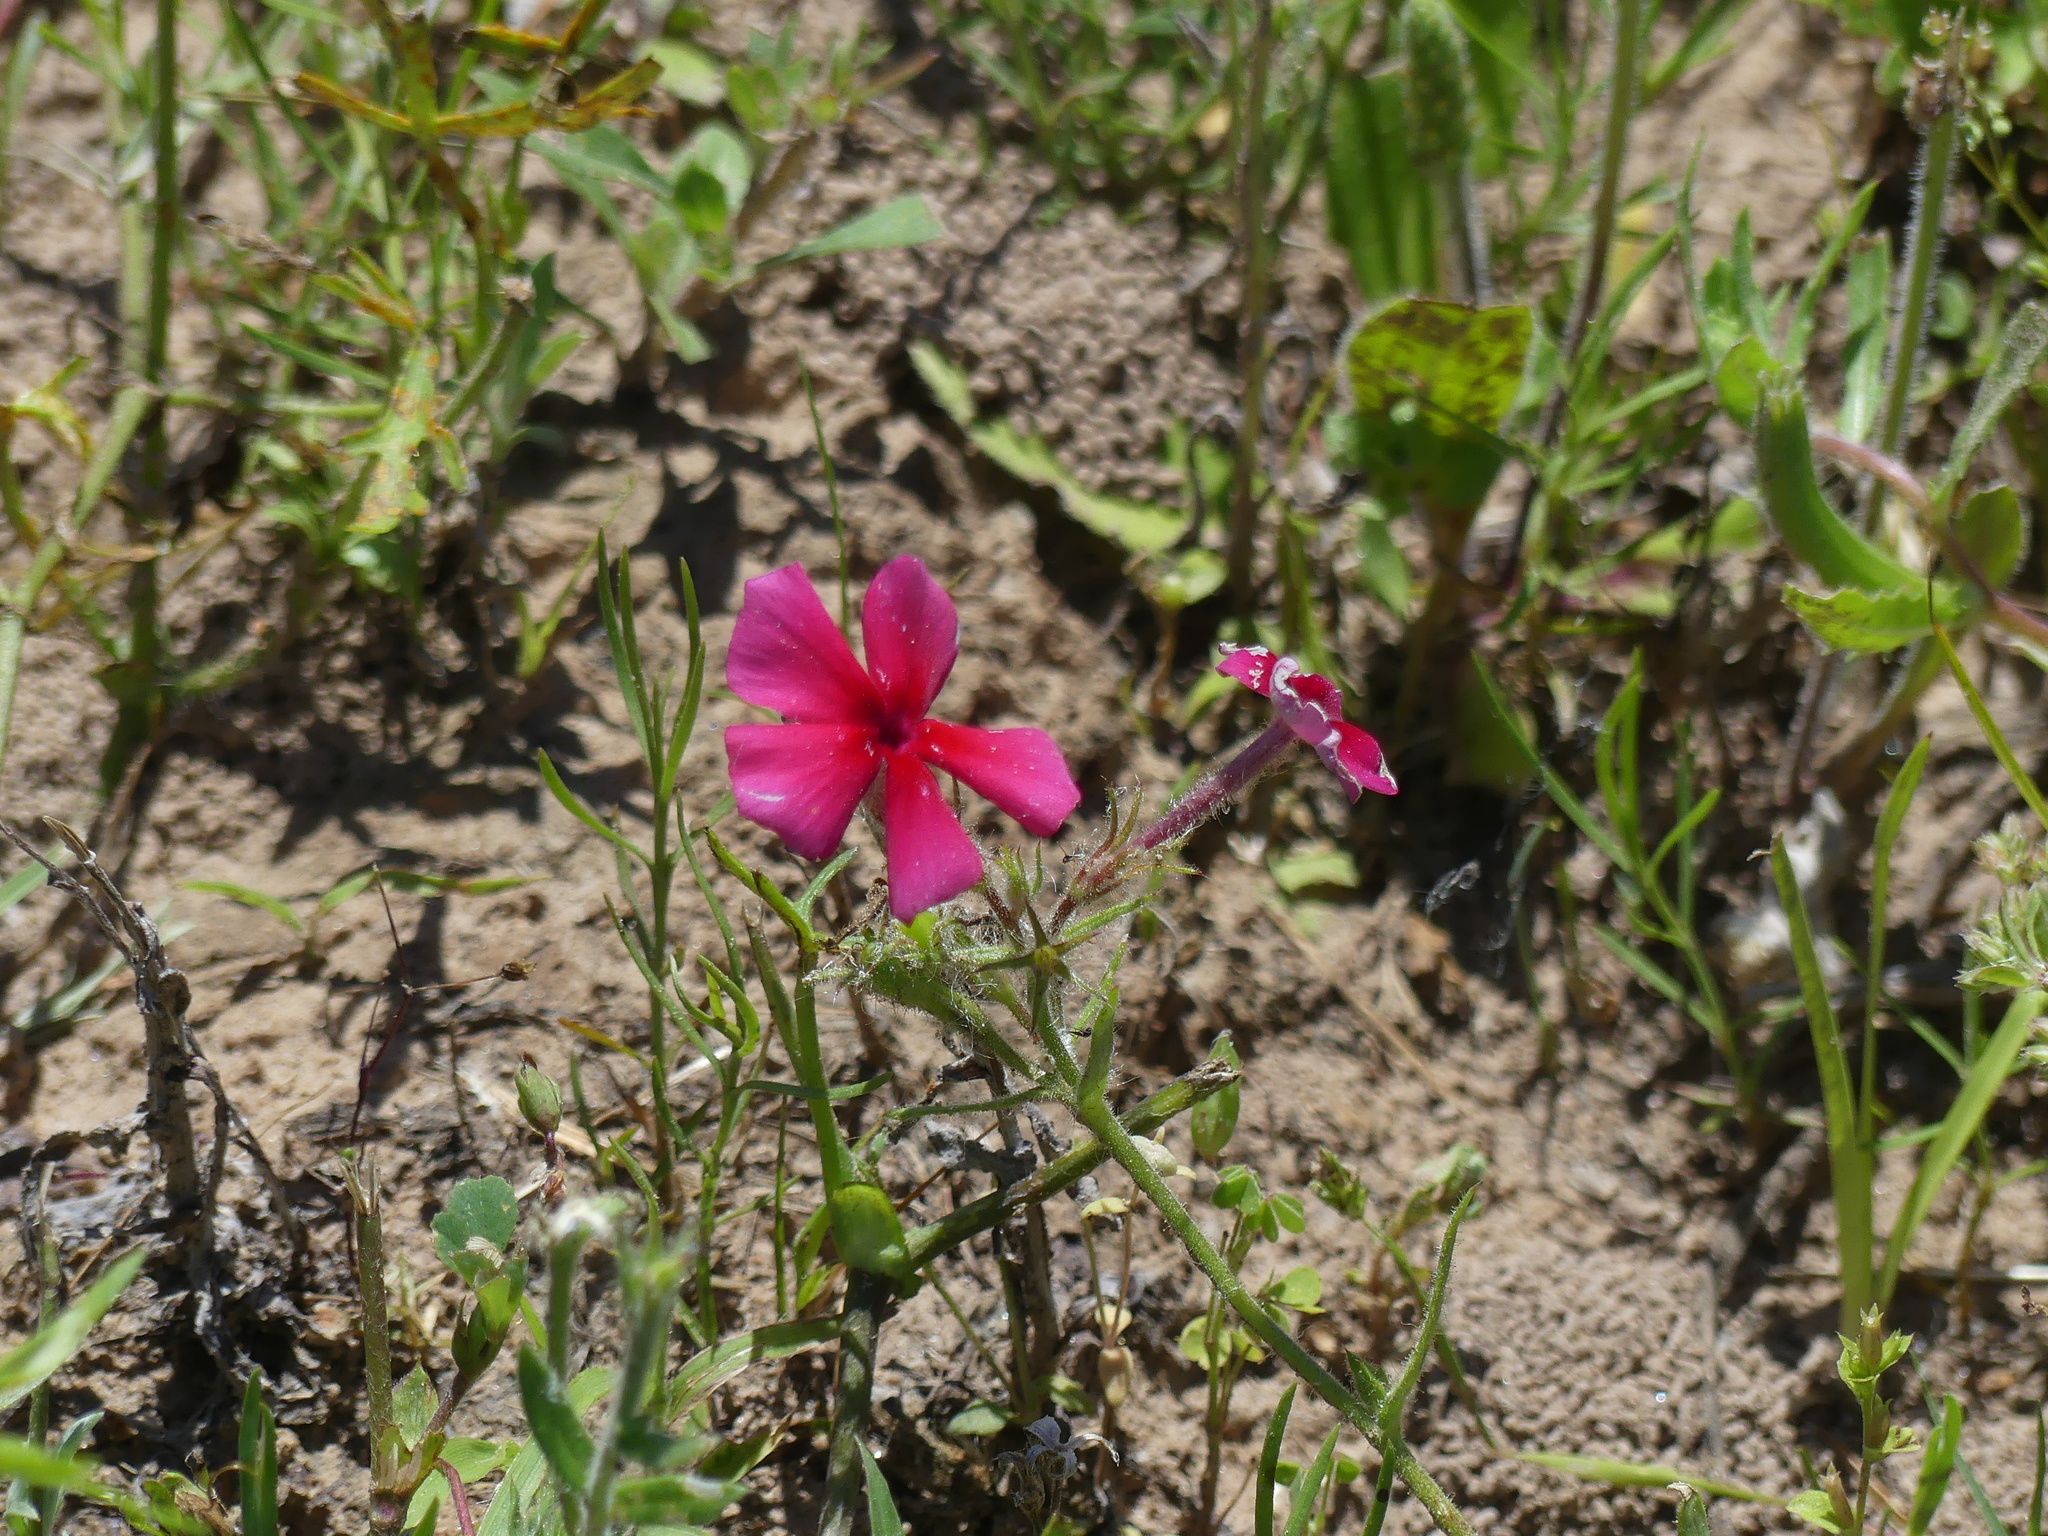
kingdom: Plantae
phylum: Tracheophyta
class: Magnoliopsida
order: Ericales
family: Polemoniaceae
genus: Phlox
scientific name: Phlox drummondii
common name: Drummond's phlox
